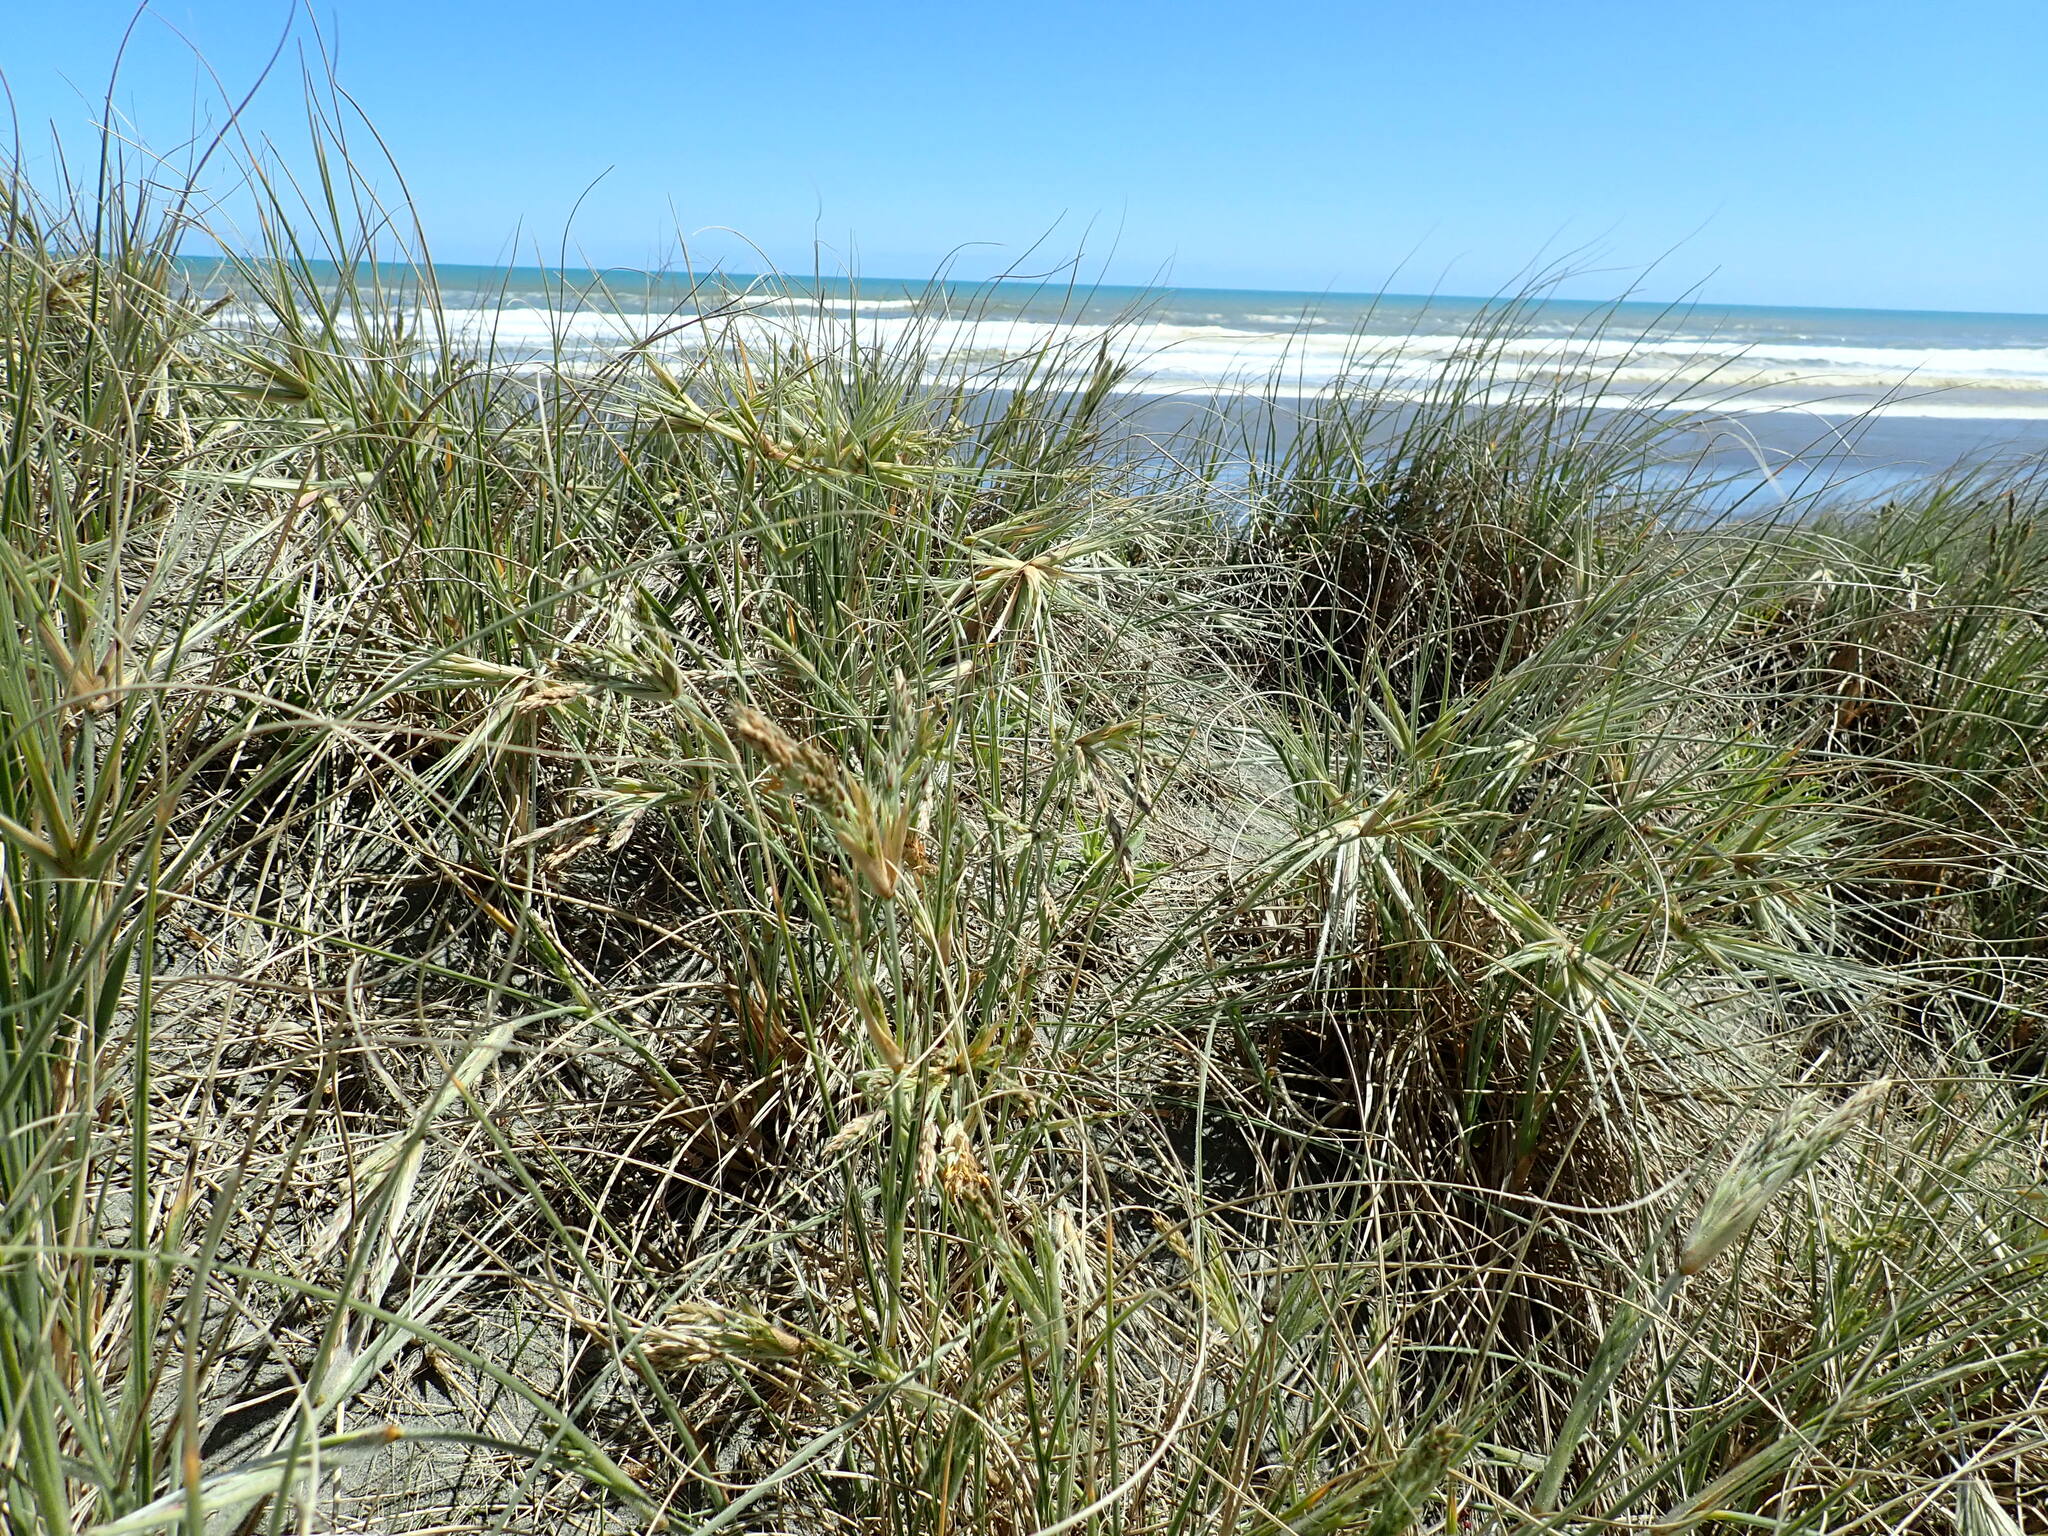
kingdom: Plantae
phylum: Tracheophyta
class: Liliopsida
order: Poales
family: Poaceae
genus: Spinifex
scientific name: Spinifex sericeus
